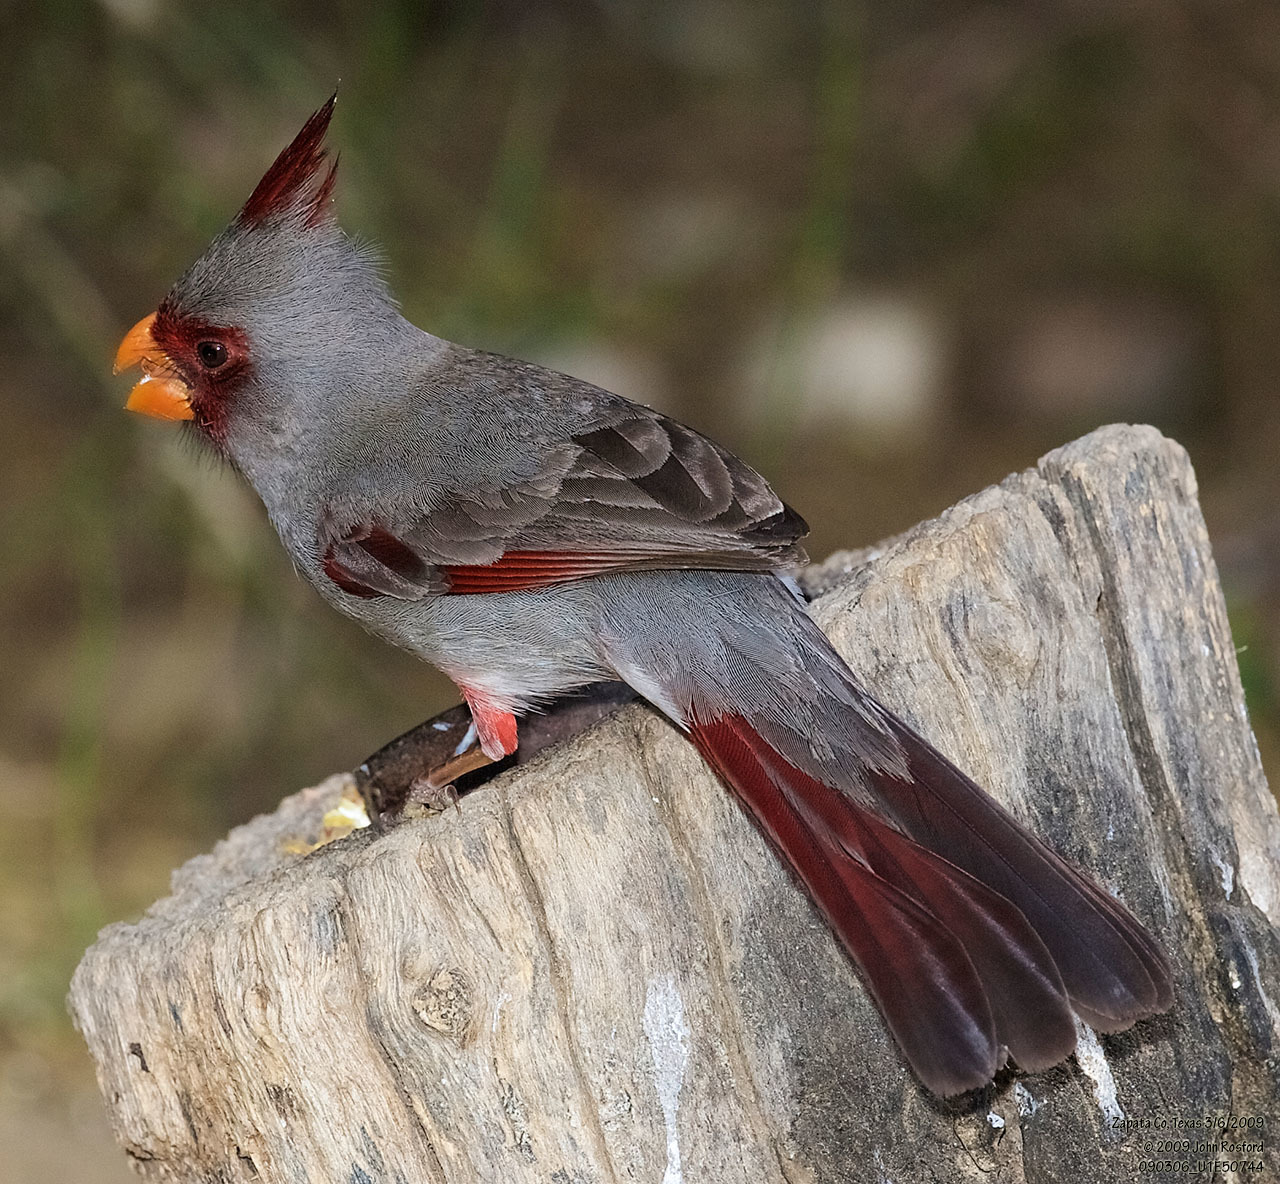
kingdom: Animalia
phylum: Chordata
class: Aves
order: Passeriformes
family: Cardinalidae
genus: Cardinalis
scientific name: Cardinalis sinuatus
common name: Pyrrhuloxia
